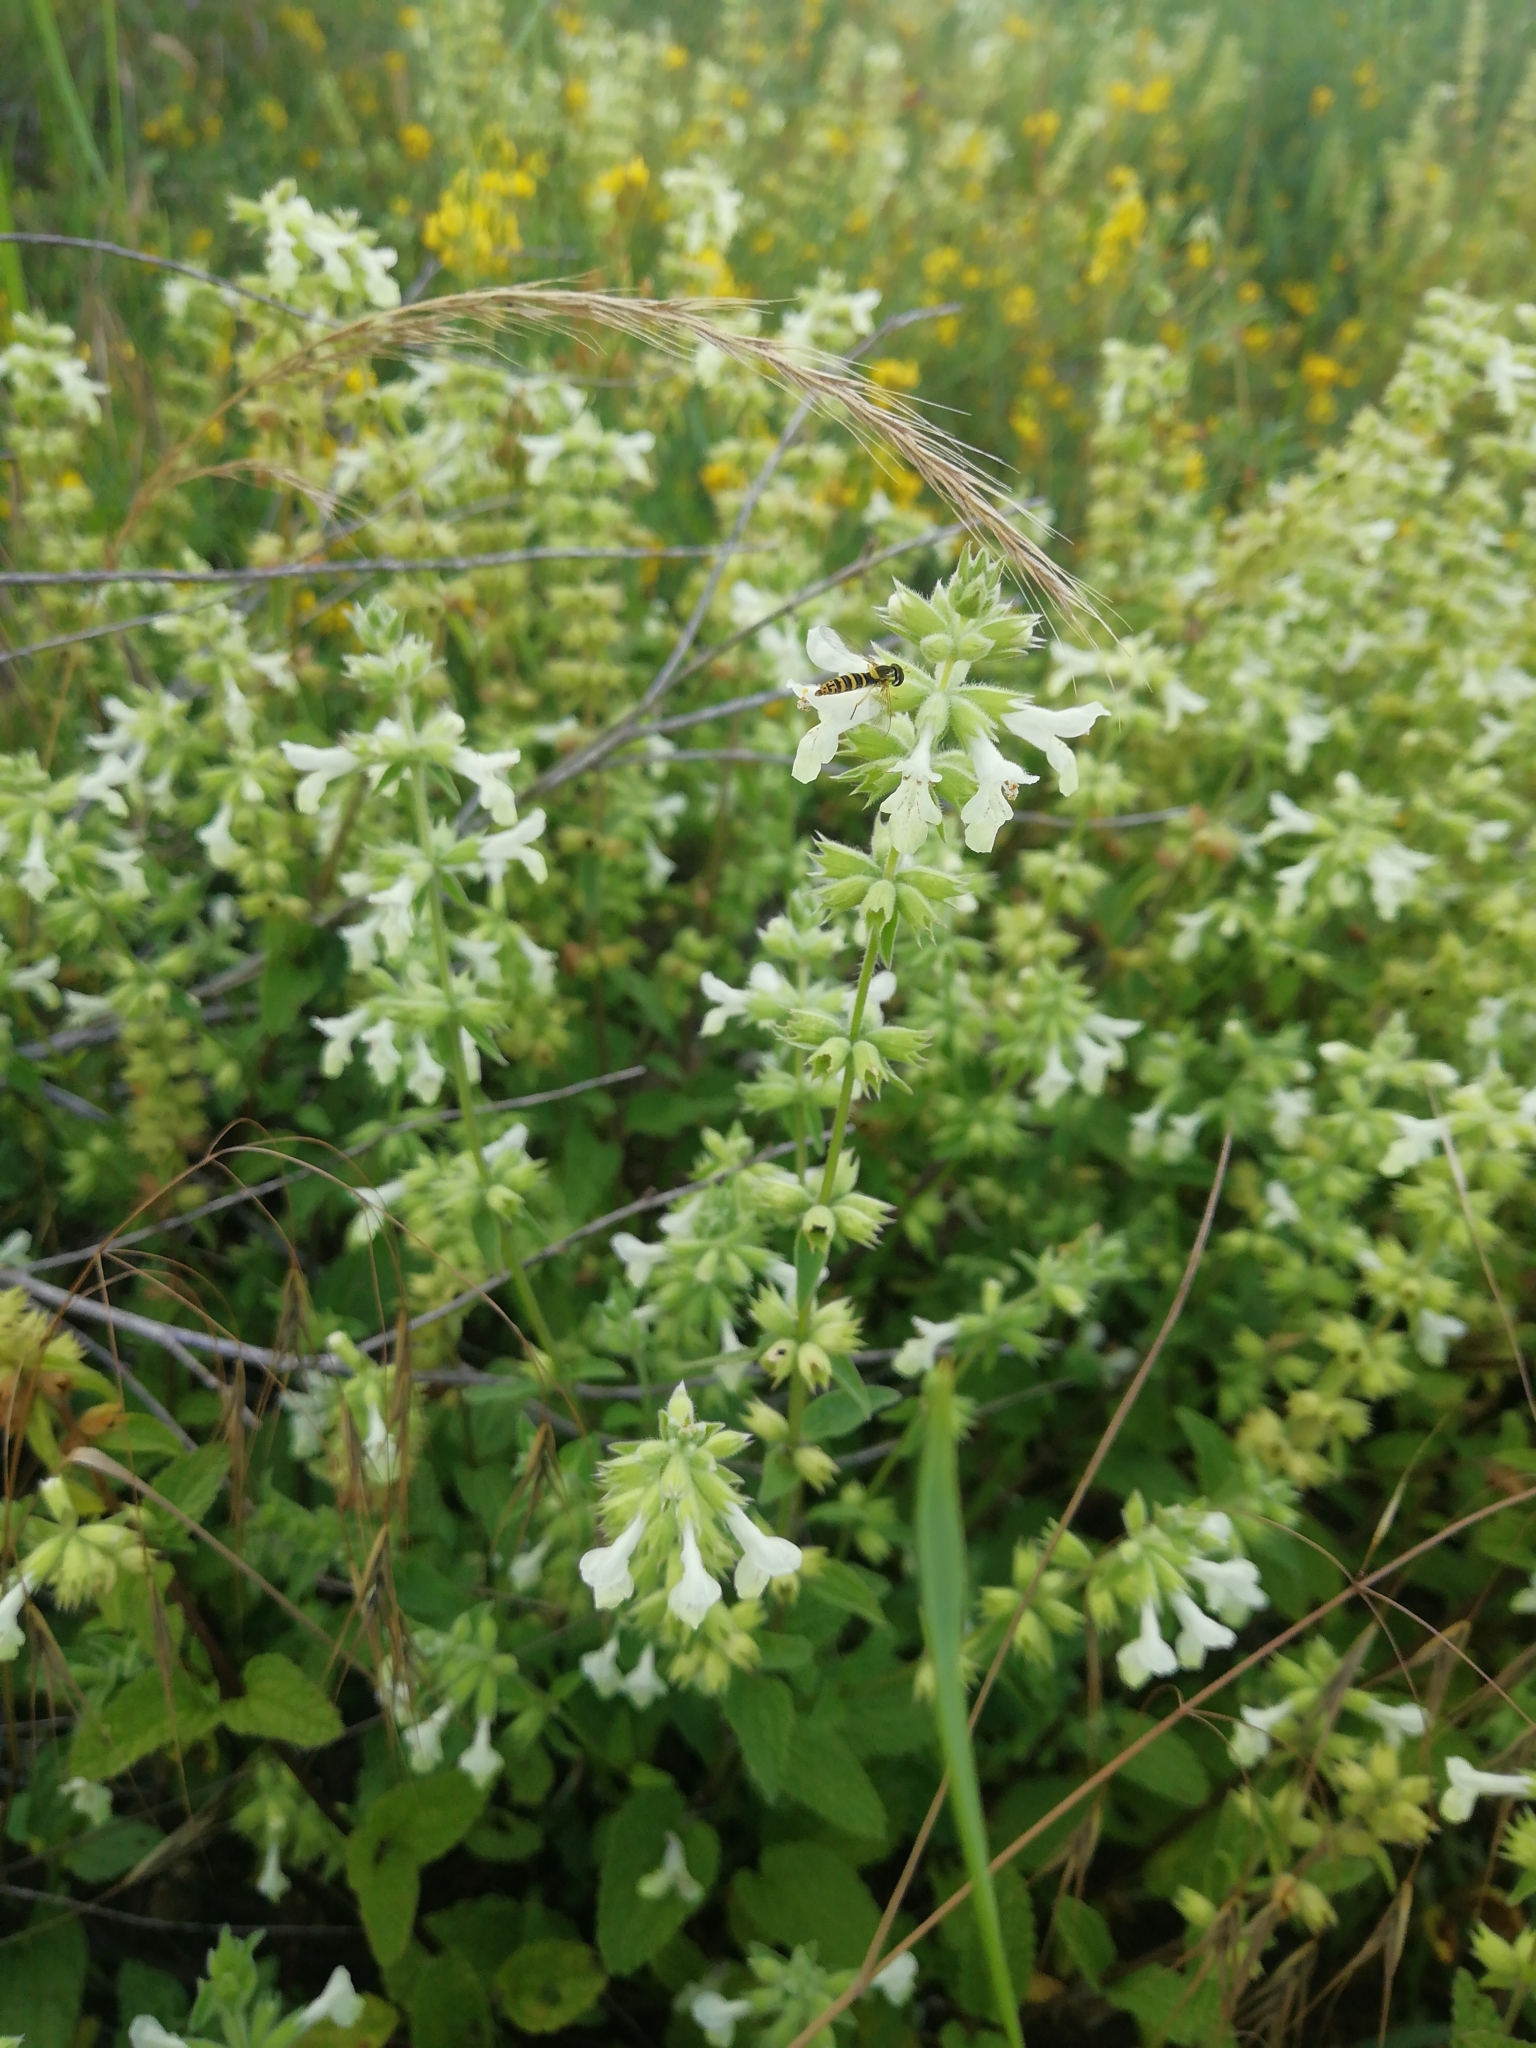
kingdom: Plantae
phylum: Tracheophyta
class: Magnoliopsida
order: Lamiales
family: Lamiaceae
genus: Stachys
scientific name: Stachys annua
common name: Annual yellow-woundwort
